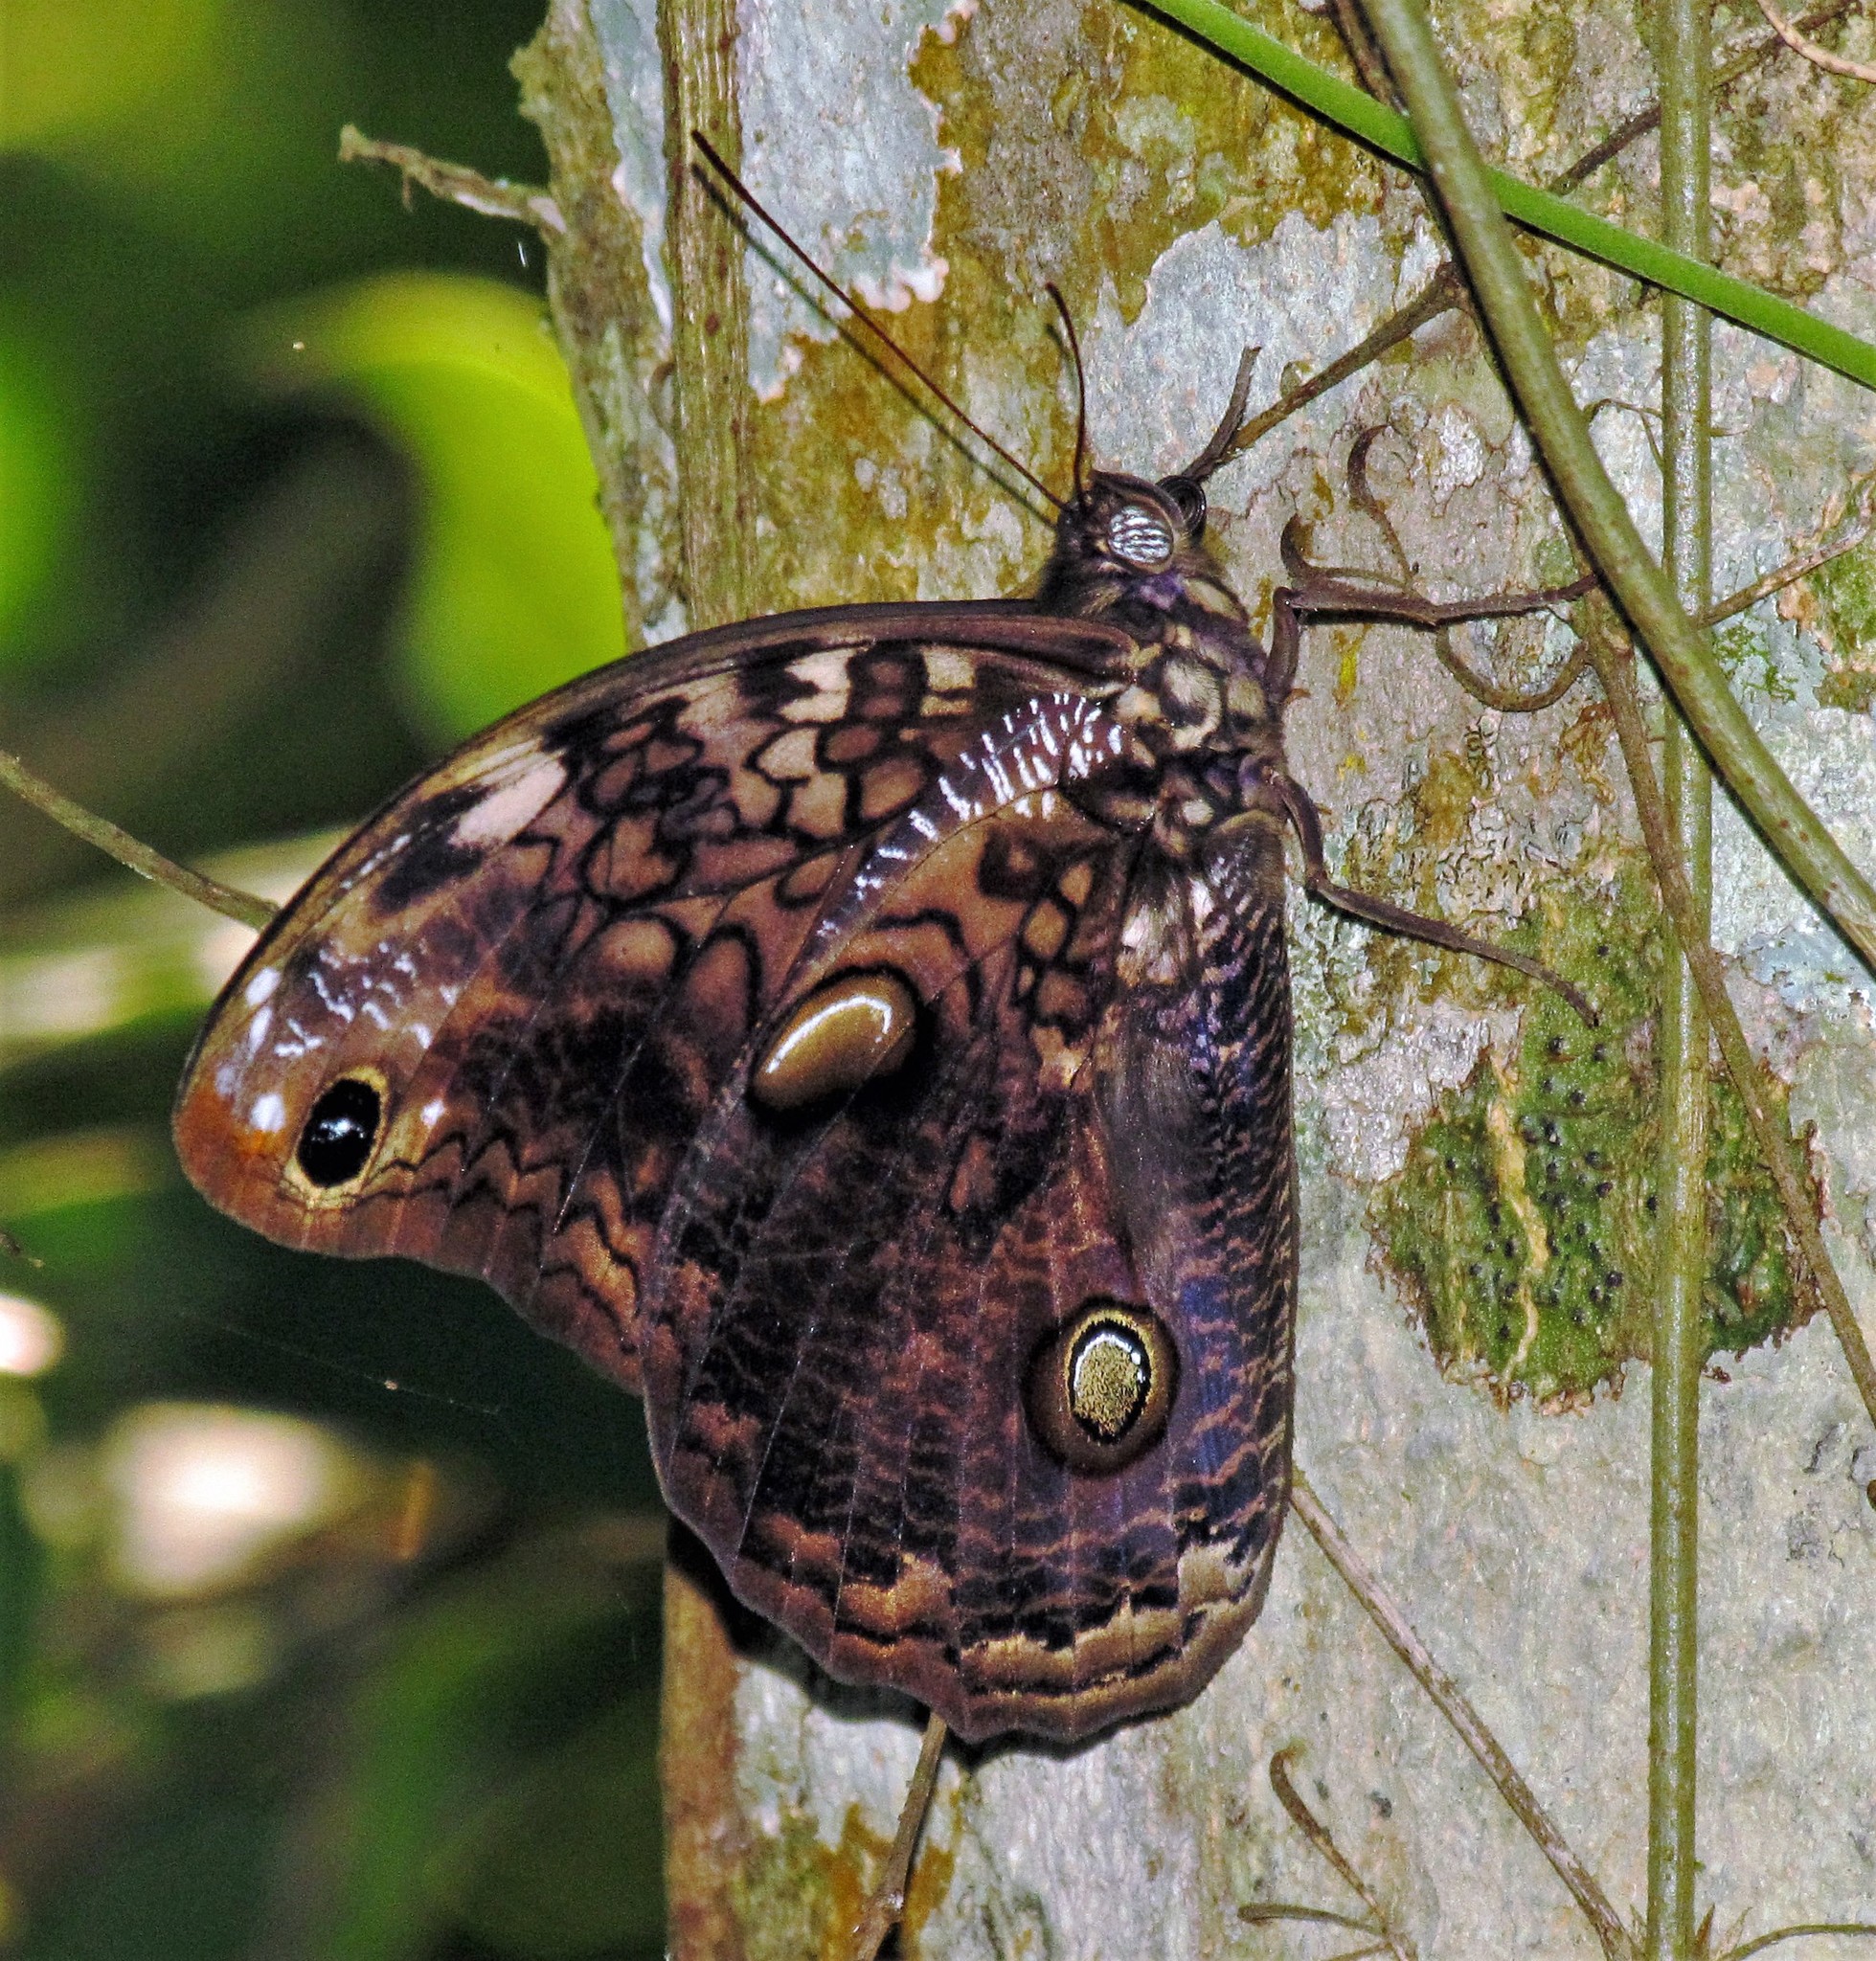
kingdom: Animalia
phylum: Arthropoda
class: Insecta
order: Lepidoptera
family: Nymphalidae
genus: Catoblepia
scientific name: Catoblepia amphirhoe
